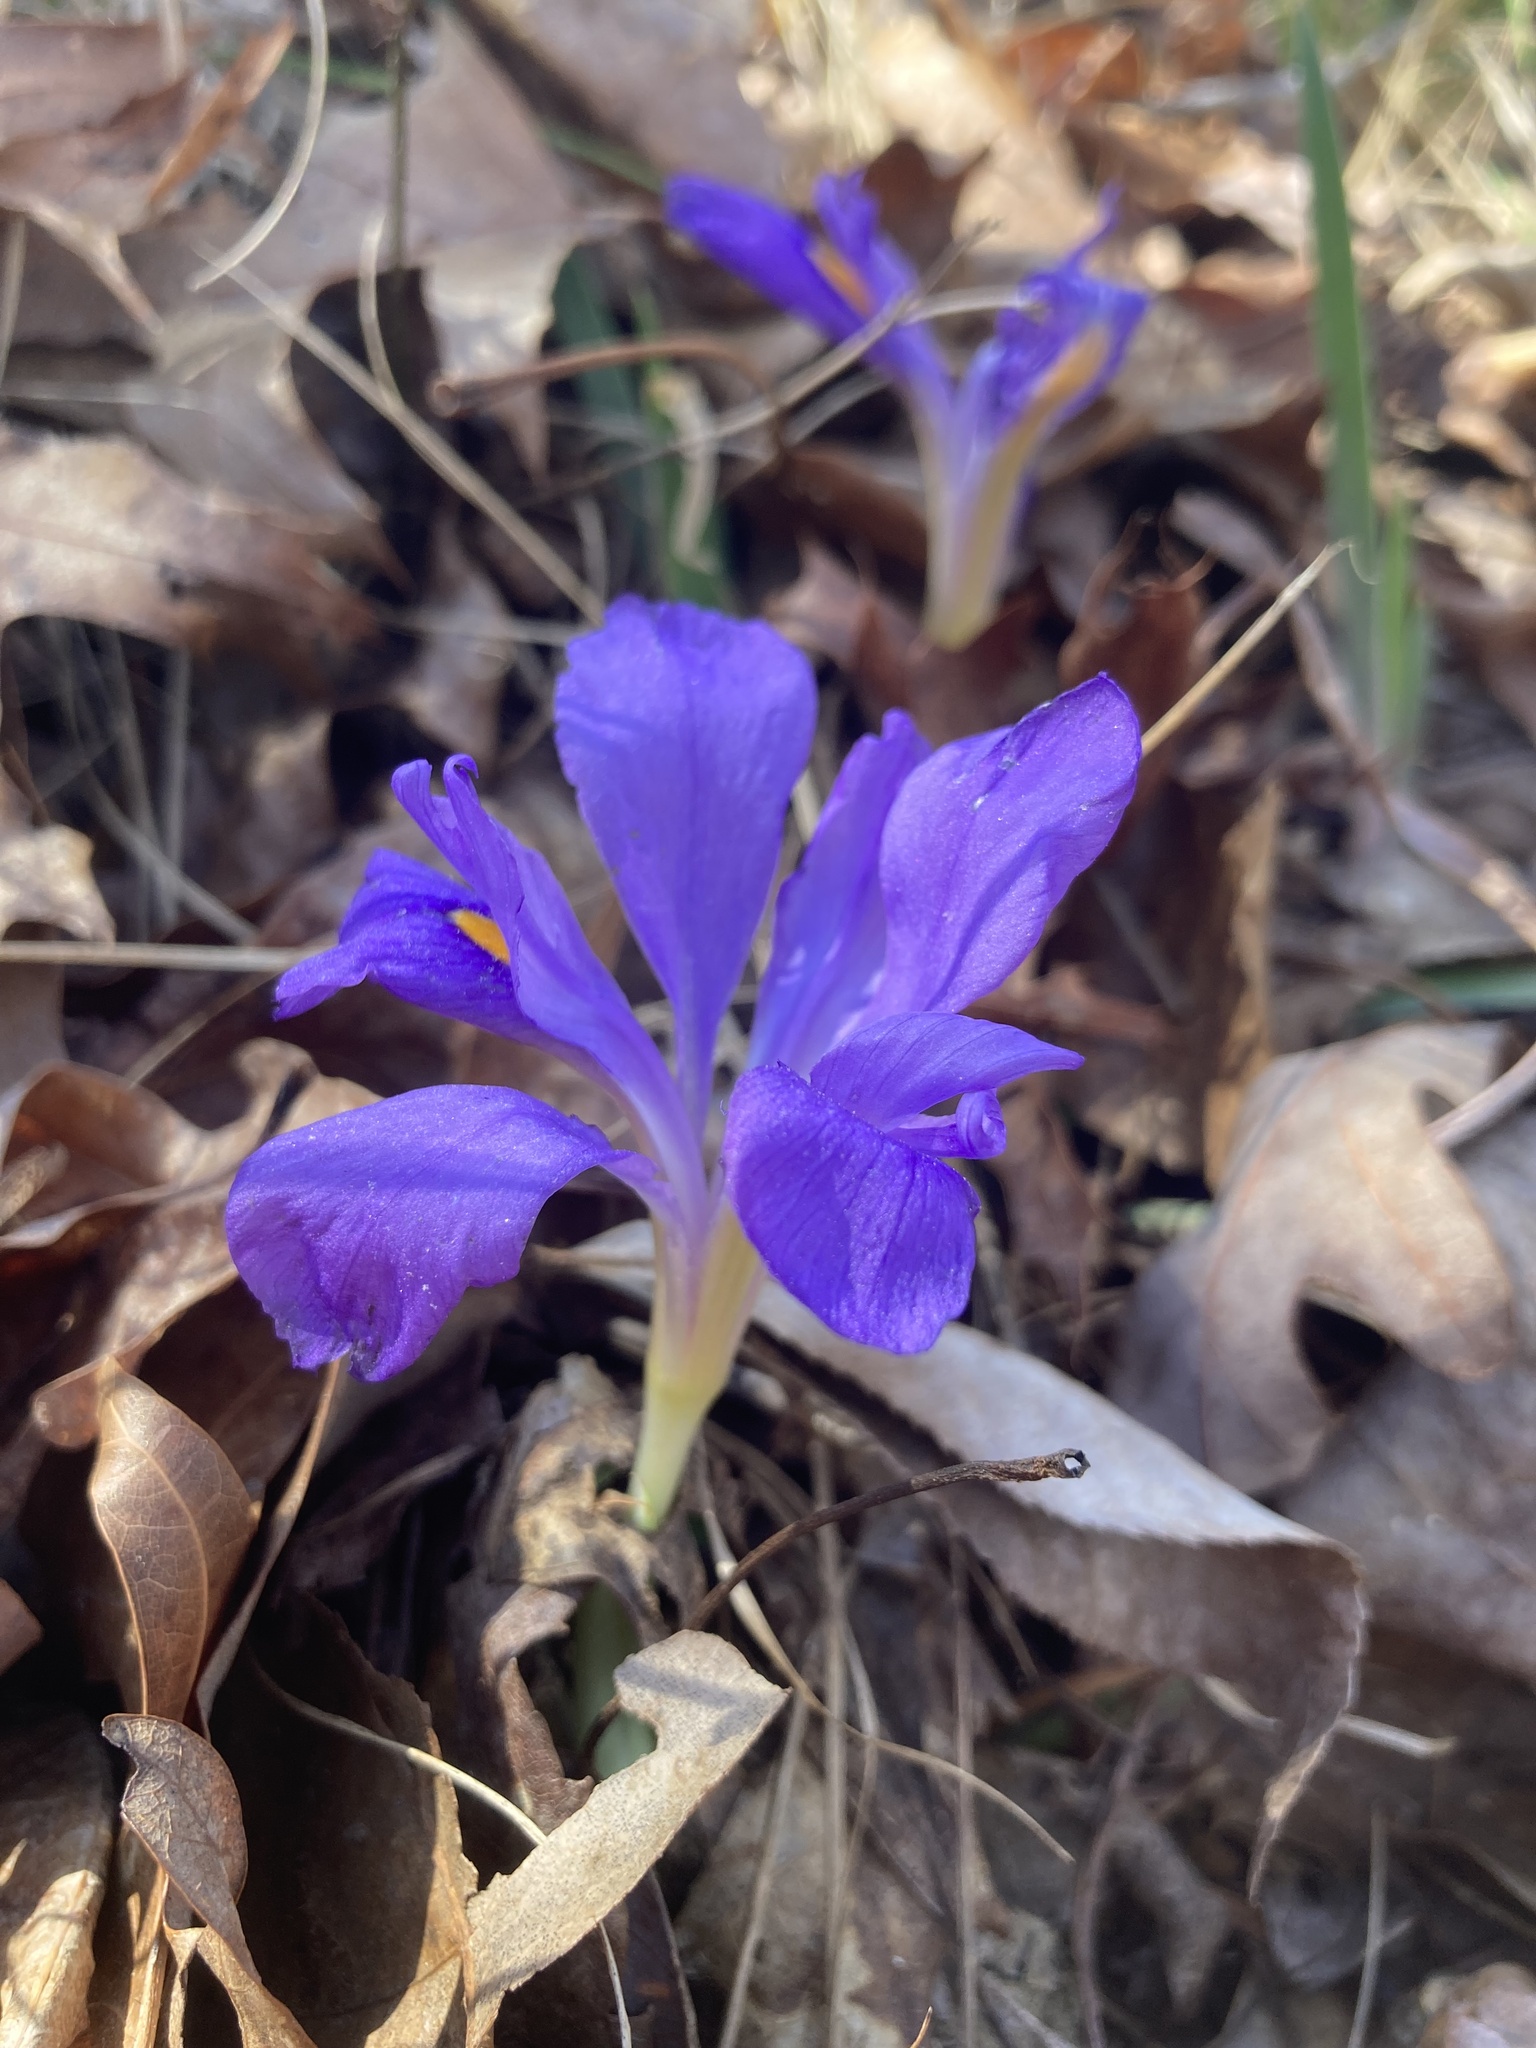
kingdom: Plantae
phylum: Tracheophyta
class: Liliopsida
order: Asparagales
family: Iridaceae
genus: Iris
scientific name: Iris verna
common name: Dwarf iris
